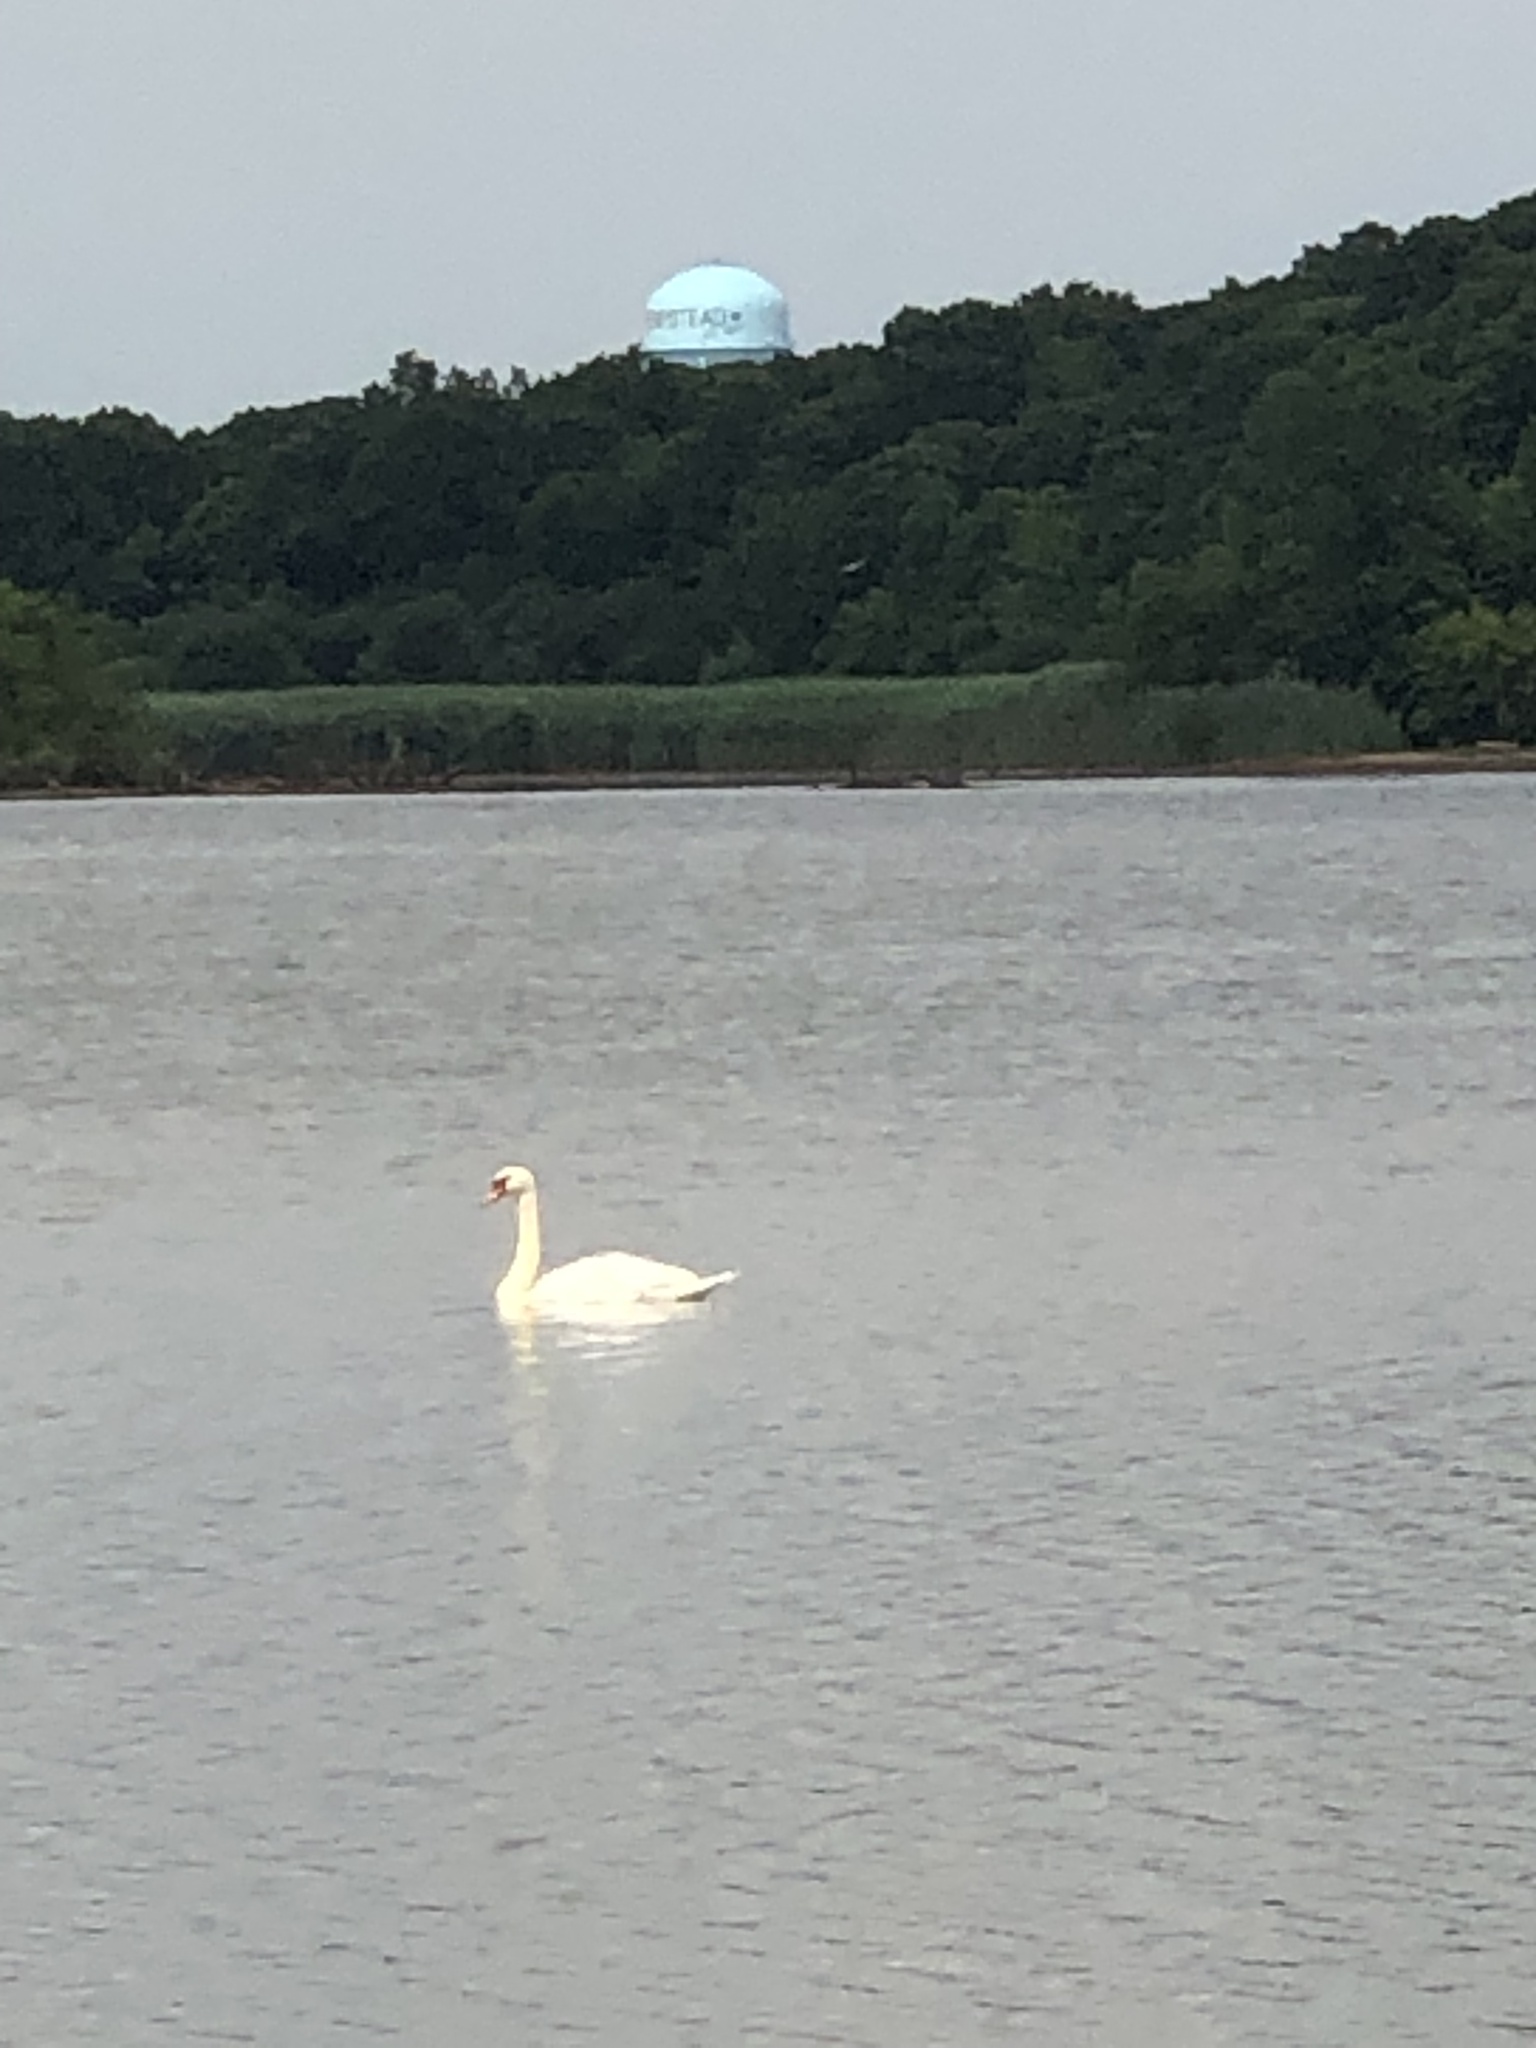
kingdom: Animalia
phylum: Chordata
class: Aves
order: Anseriformes
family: Anatidae
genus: Cygnus
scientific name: Cygnus olor
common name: Mute swan
